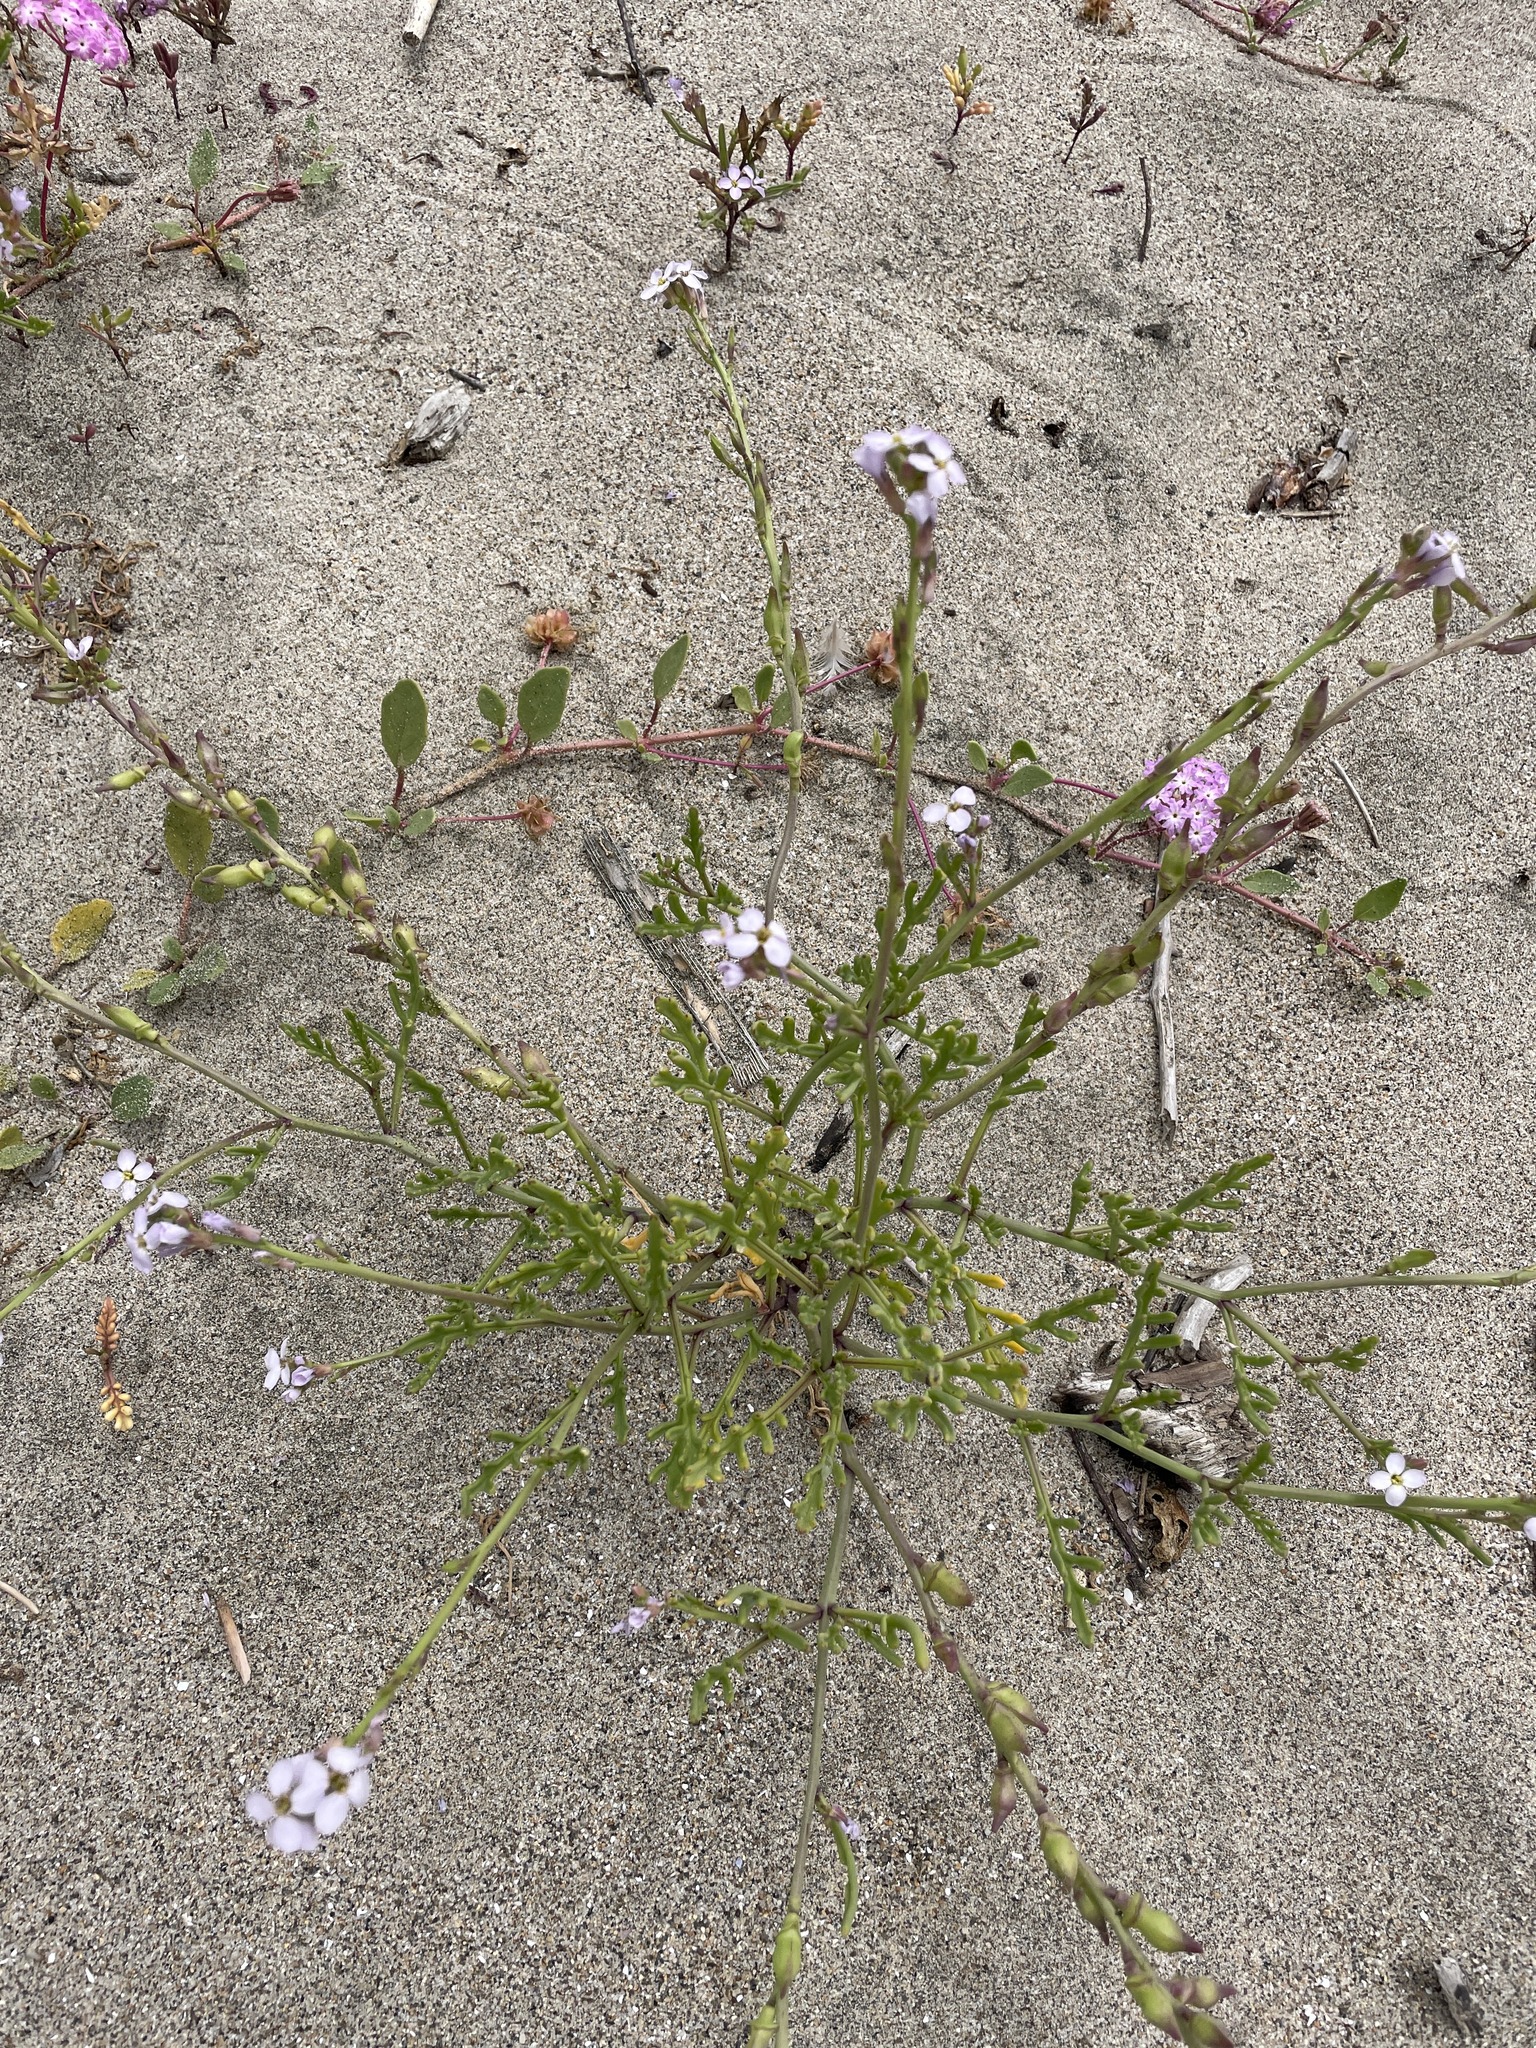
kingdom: Plantae
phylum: Tracheophyta
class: Magnoliopsida
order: Brassicales
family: Brassicaceae
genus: Cakile
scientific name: Cakile maritima
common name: Sea rocket
